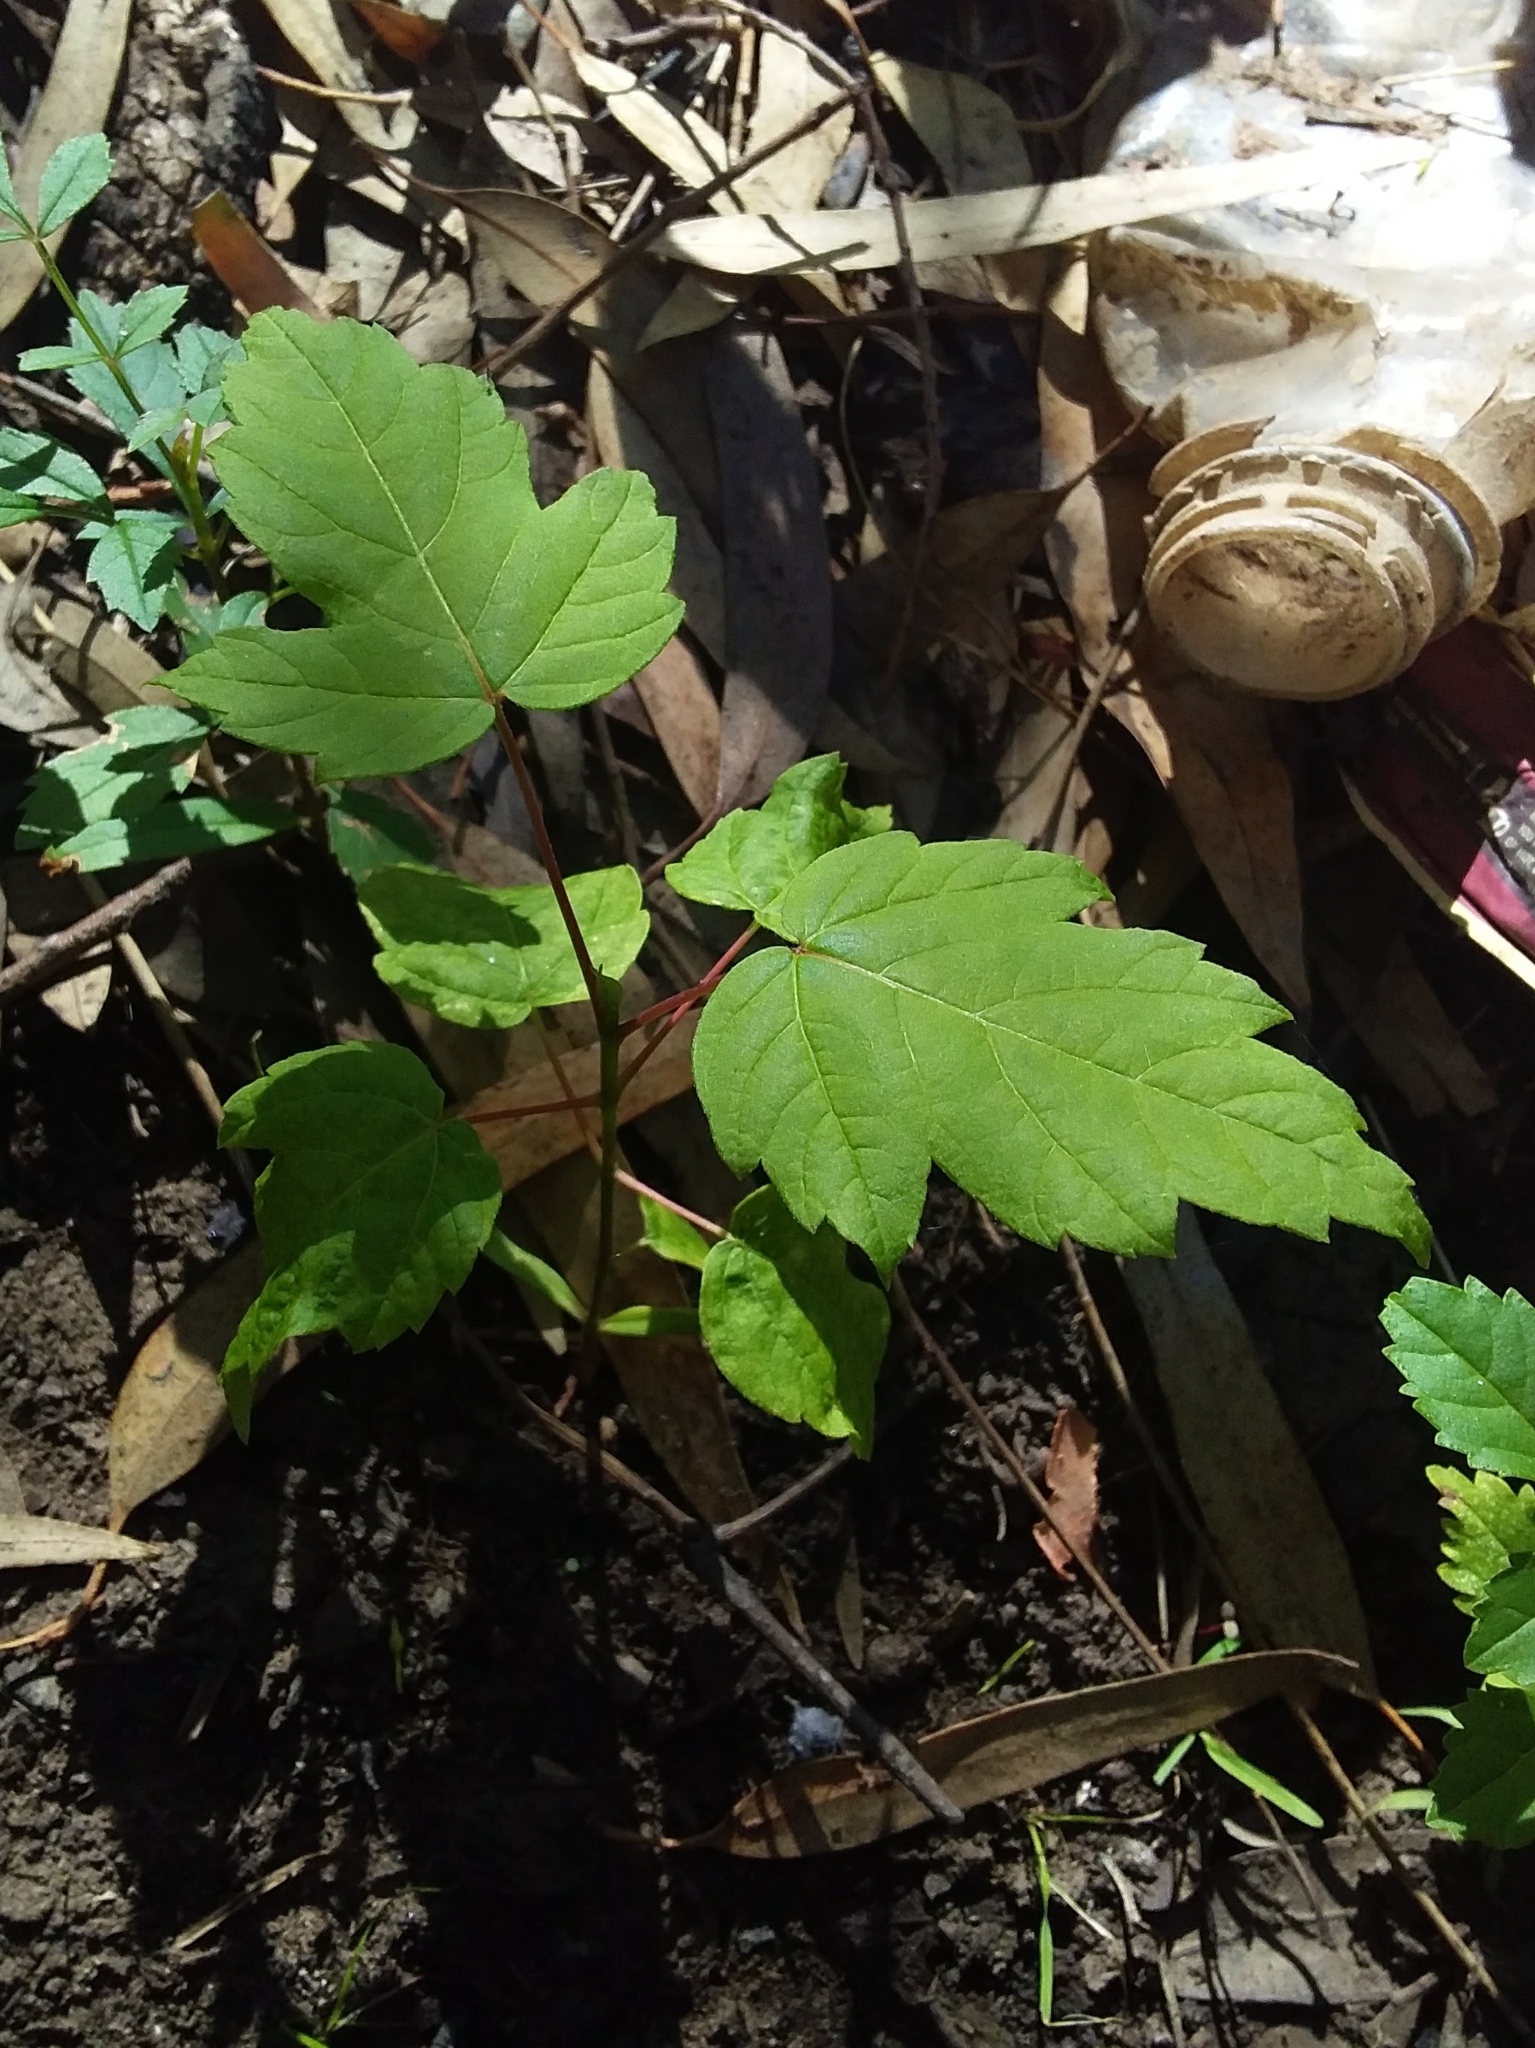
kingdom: Plantae
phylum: Tracheophyta
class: Magnoliopsida
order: Sapindales
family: Sapindaceae
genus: Acer
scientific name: Acer negundo
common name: Ashleaf maple
